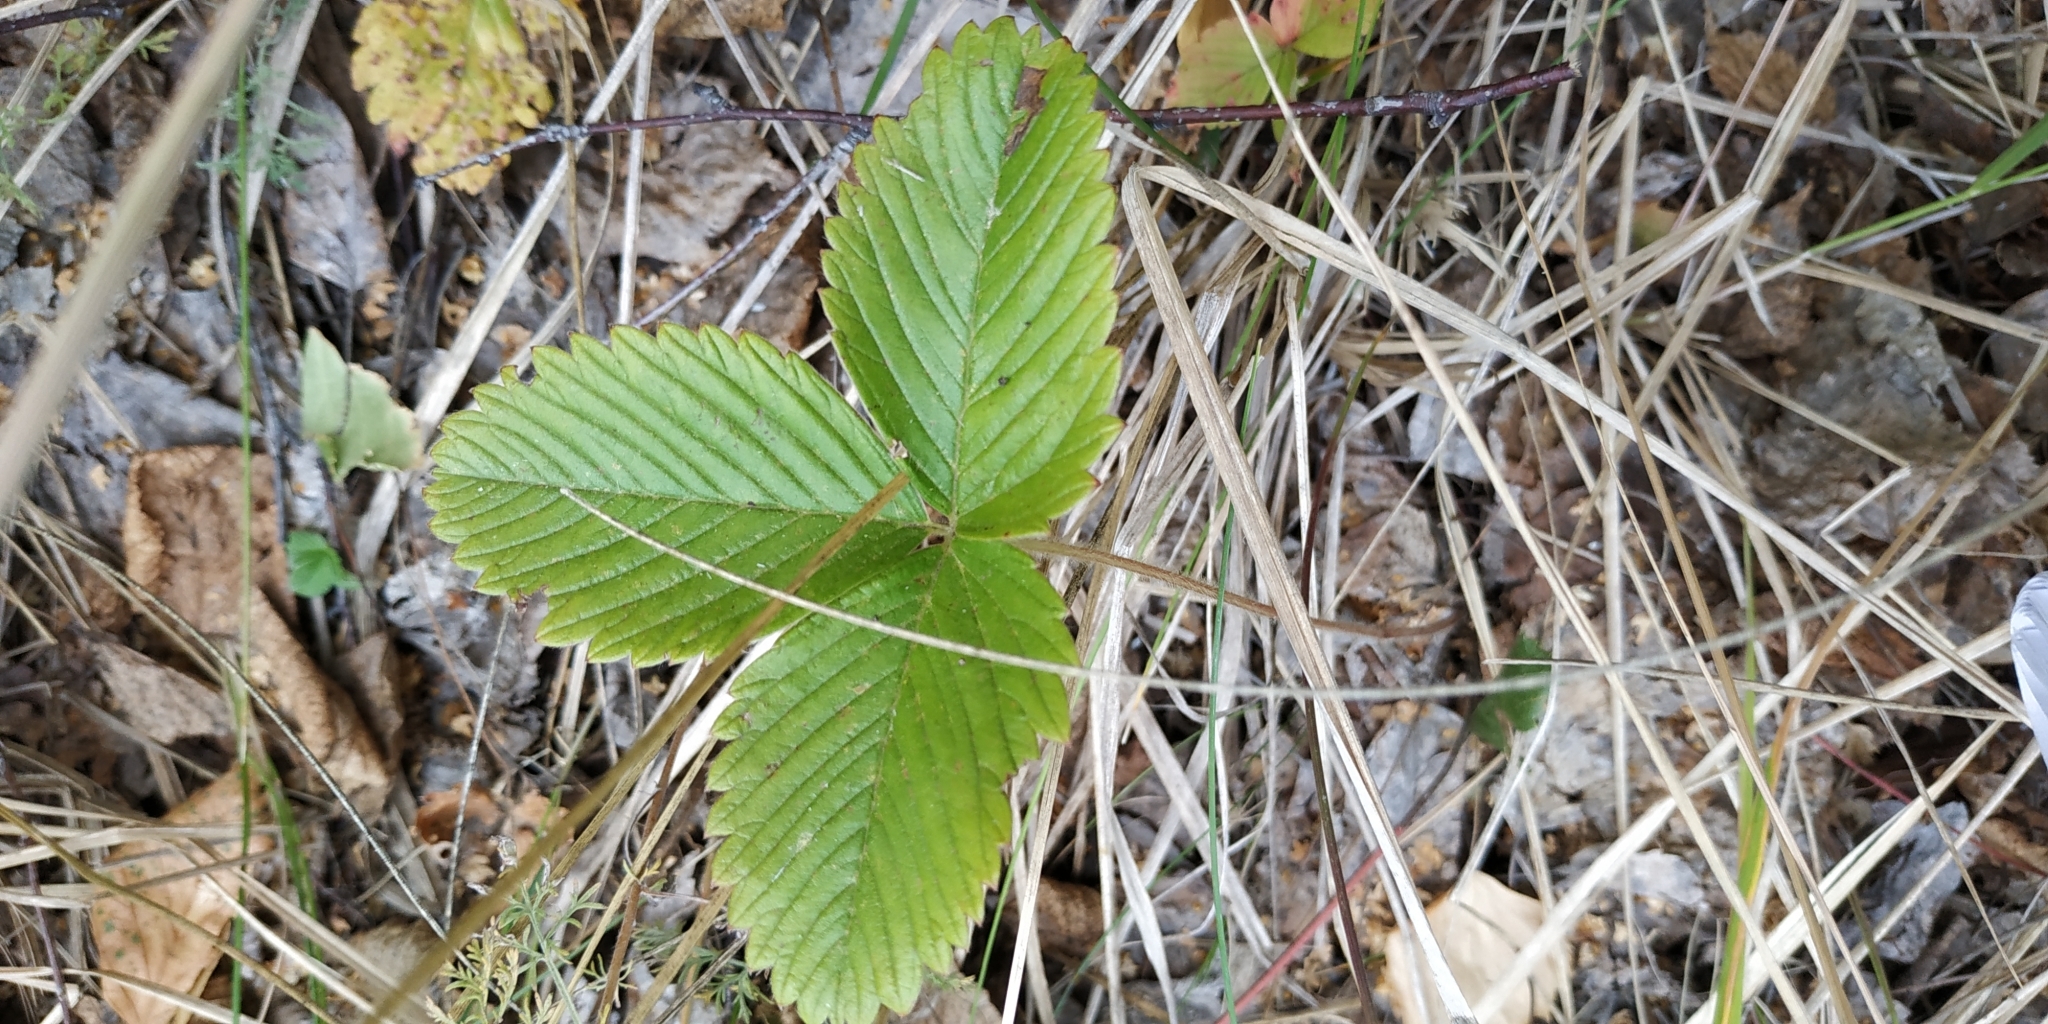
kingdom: Plantae
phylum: Tracheophyta
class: Magnoliopsida
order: Rosales
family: Rosaceae
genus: Fragaria
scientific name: Fragaria viridis
